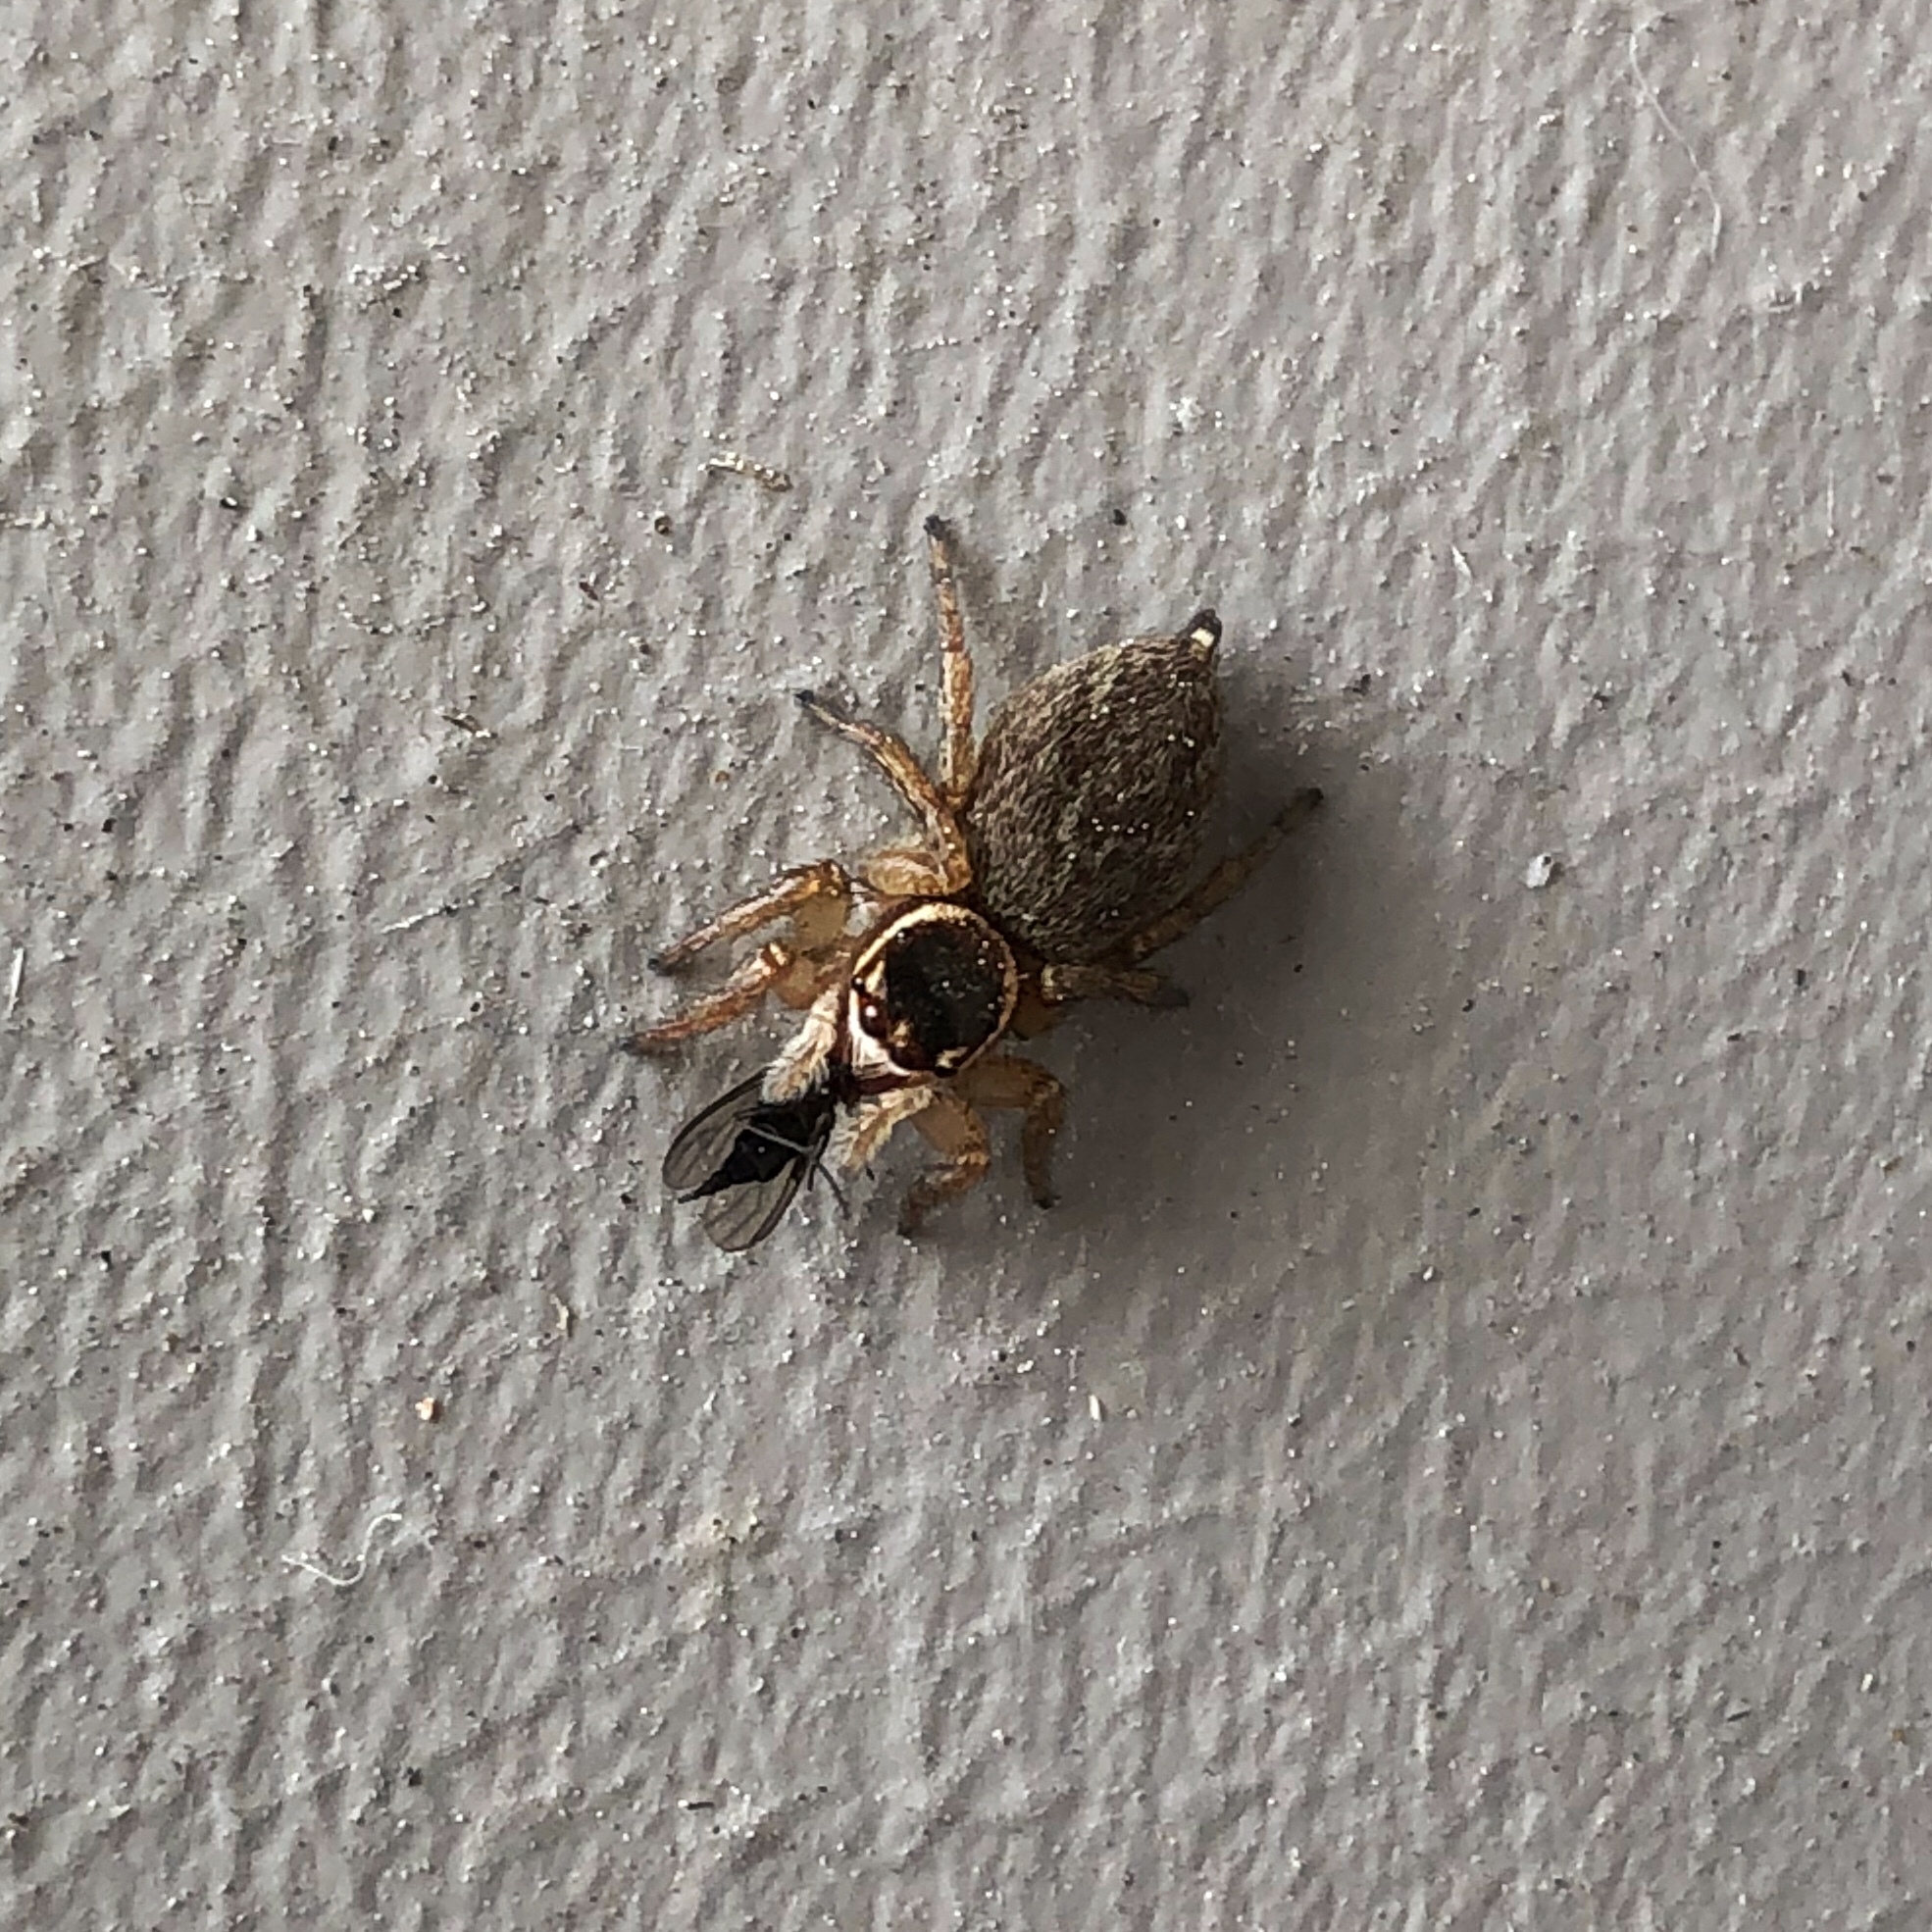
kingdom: Animalia
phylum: Arthropoda
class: Arachnida
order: Araneae
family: Salticidae
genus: Maratus
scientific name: Maratus griseus
